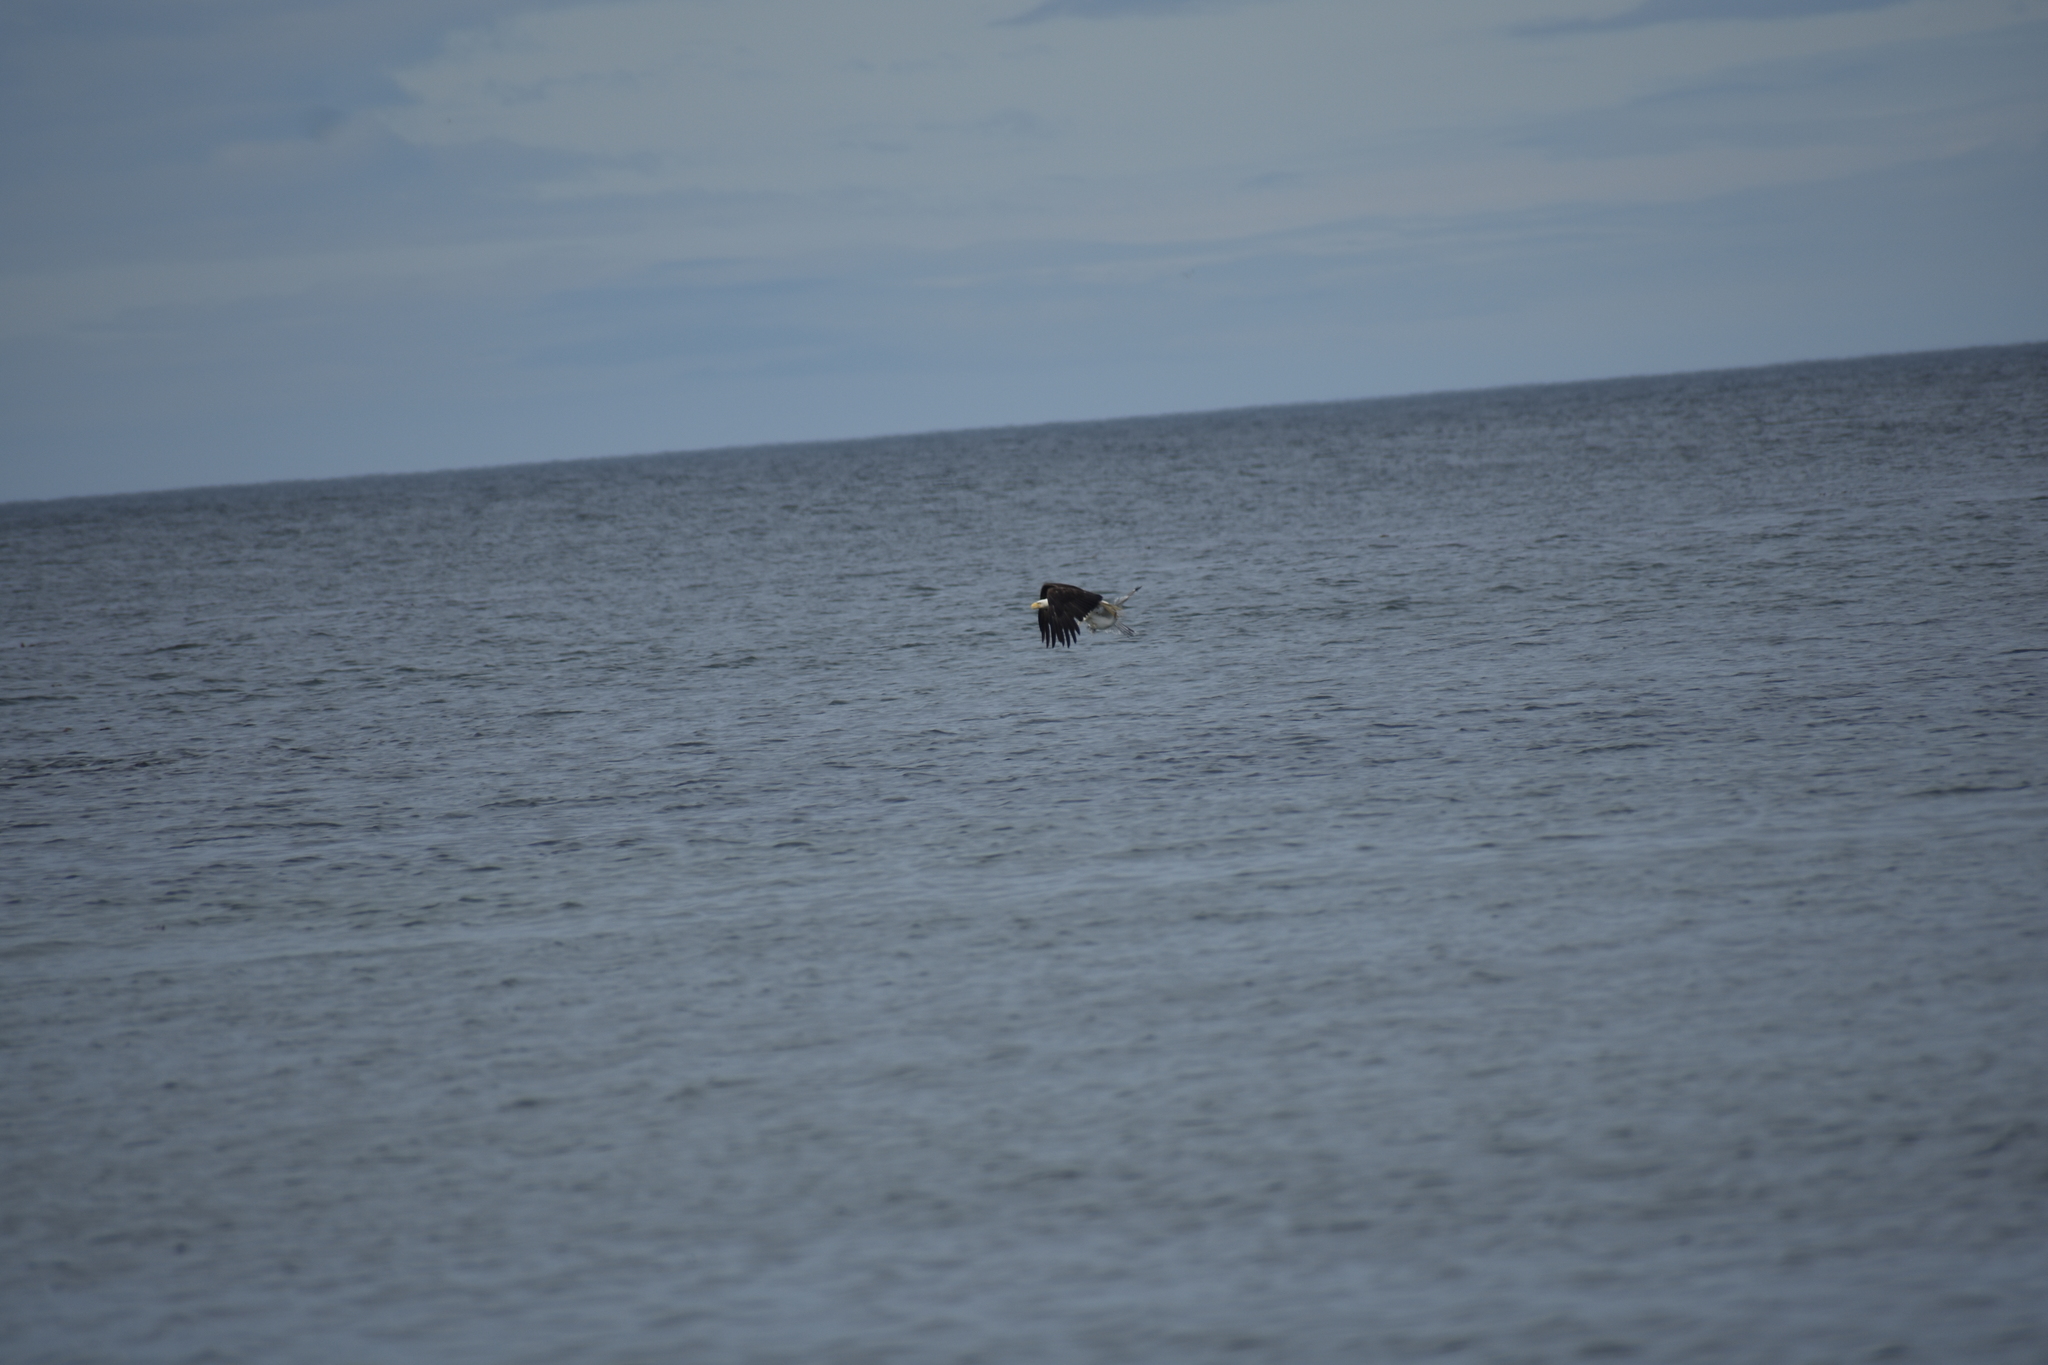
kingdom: Animalia
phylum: Chordata
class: Aves
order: Accipitriformes
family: Accipitridae
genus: Haliaeetus
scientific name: Haliaeetus leucocephalus
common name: Bald eagle
